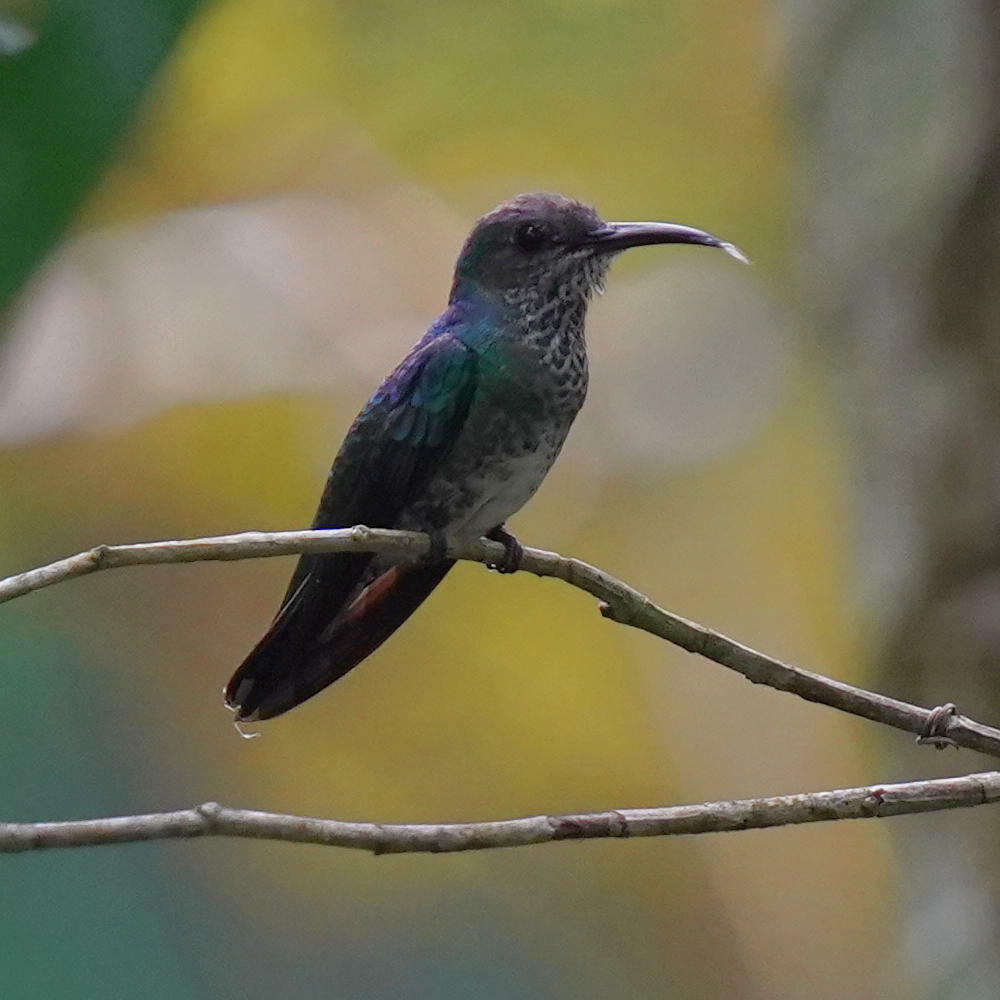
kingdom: Animalia
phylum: Chordata
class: Aves
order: Apodiformes
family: Trochilidae
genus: Florisuga
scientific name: Florisuga mellivora
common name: White-necked jacobin
